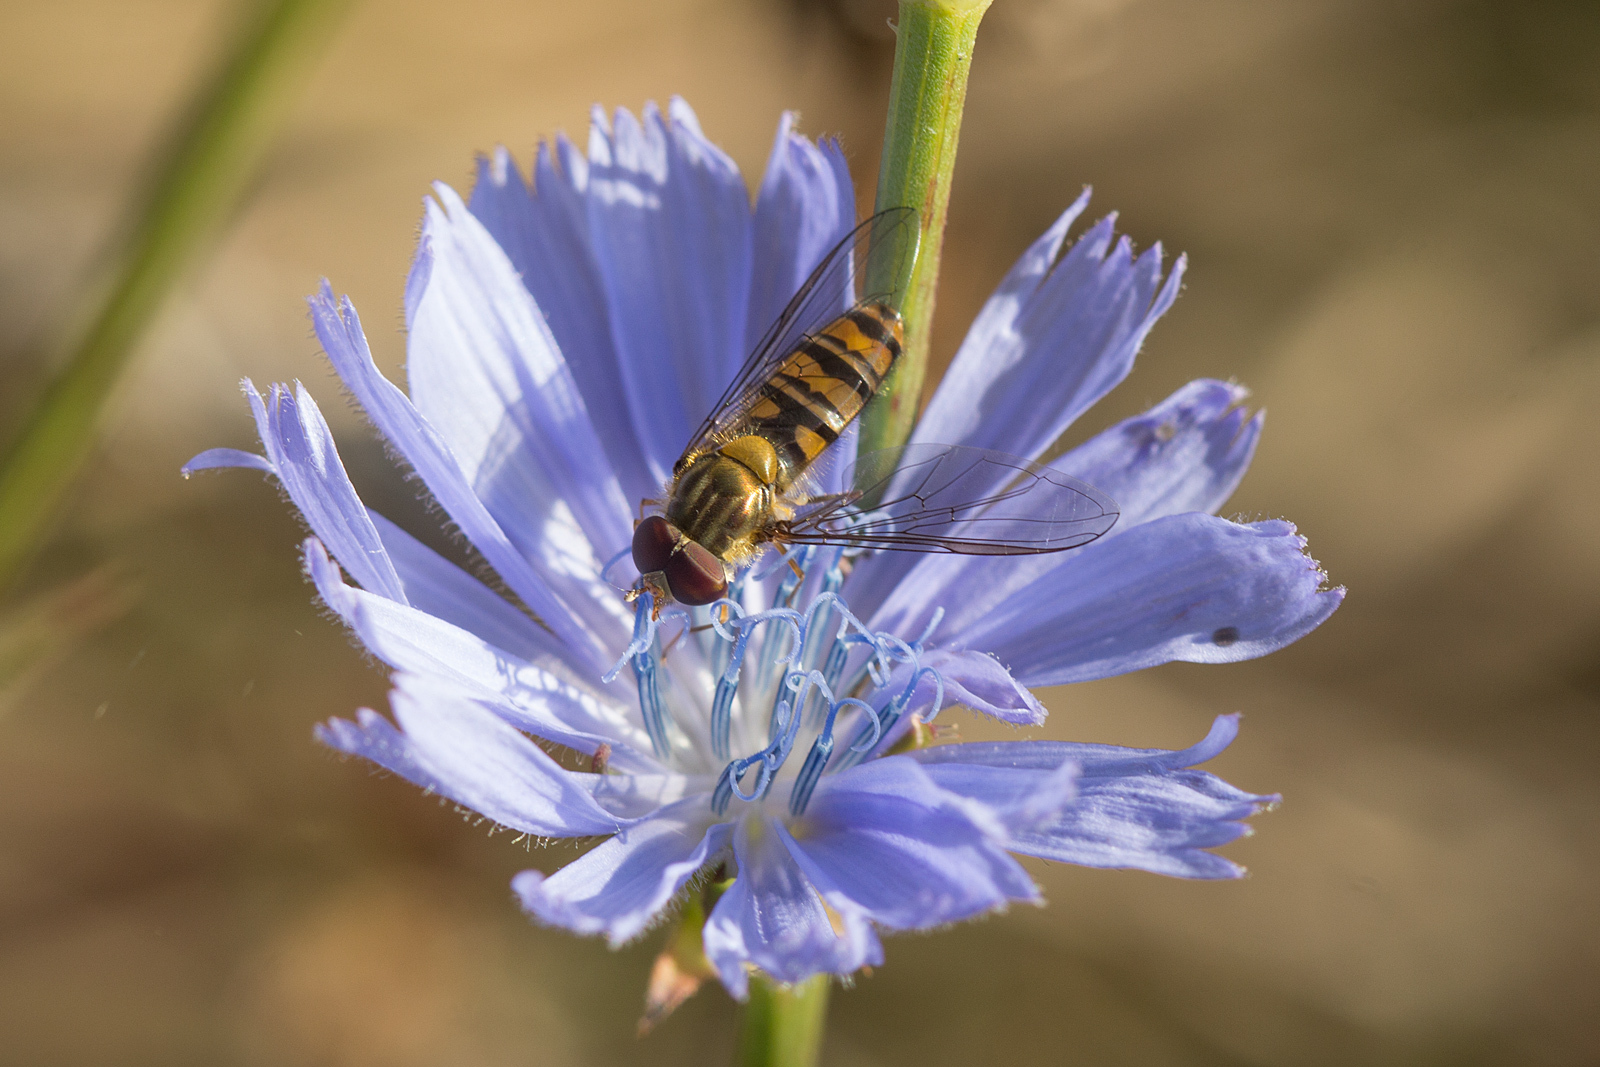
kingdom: Animalia
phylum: Arthropoda
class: Insecta
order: Diptera
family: Syrphidae
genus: Episyrphus
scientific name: Episyrphus balteatus
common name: Marmalade hoverfly
